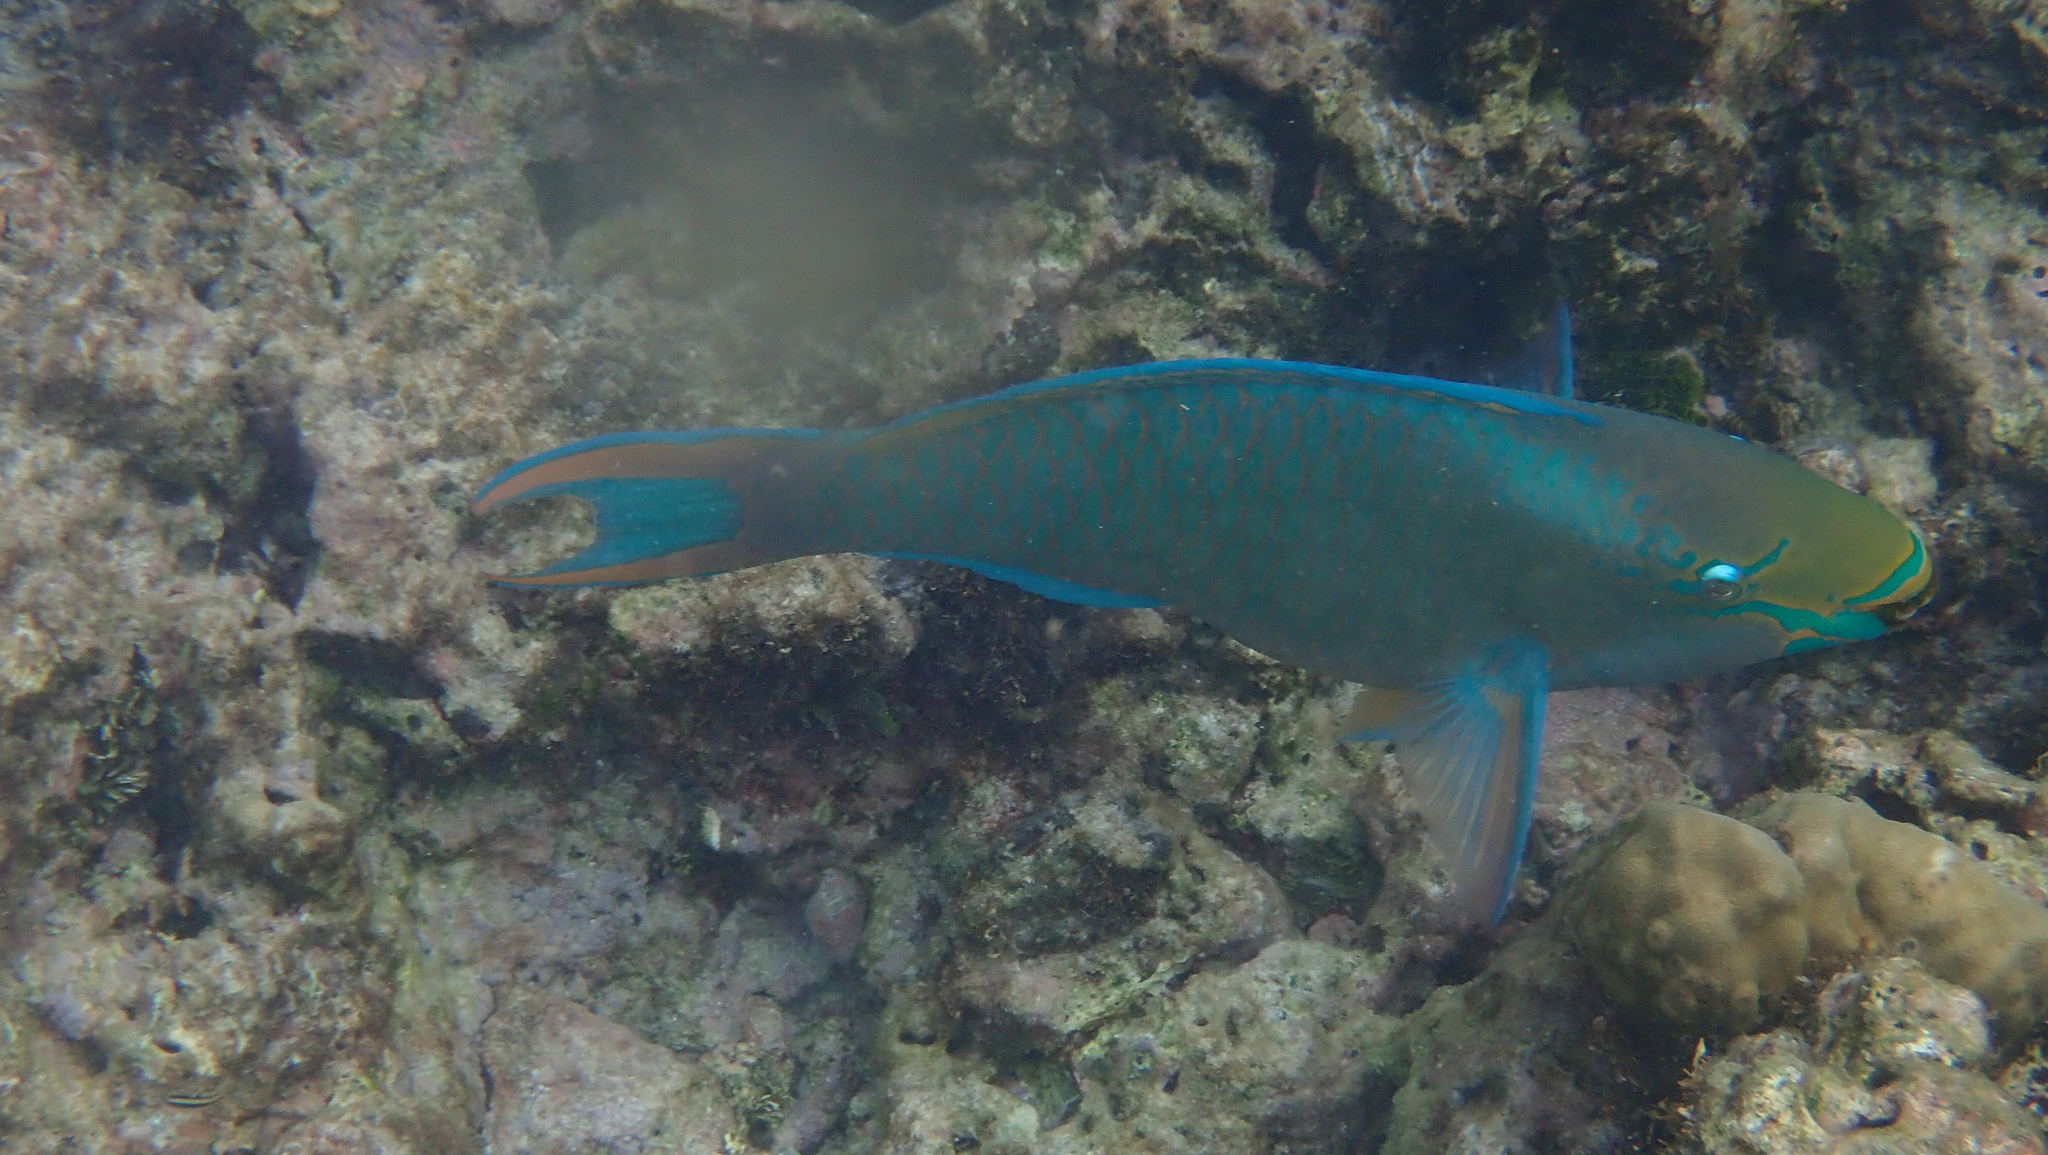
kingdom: Animalia
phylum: Chordata
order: Perciformes
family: Scaridae
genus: Scarus
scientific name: Scarus vetula
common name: Queen parrotfish
